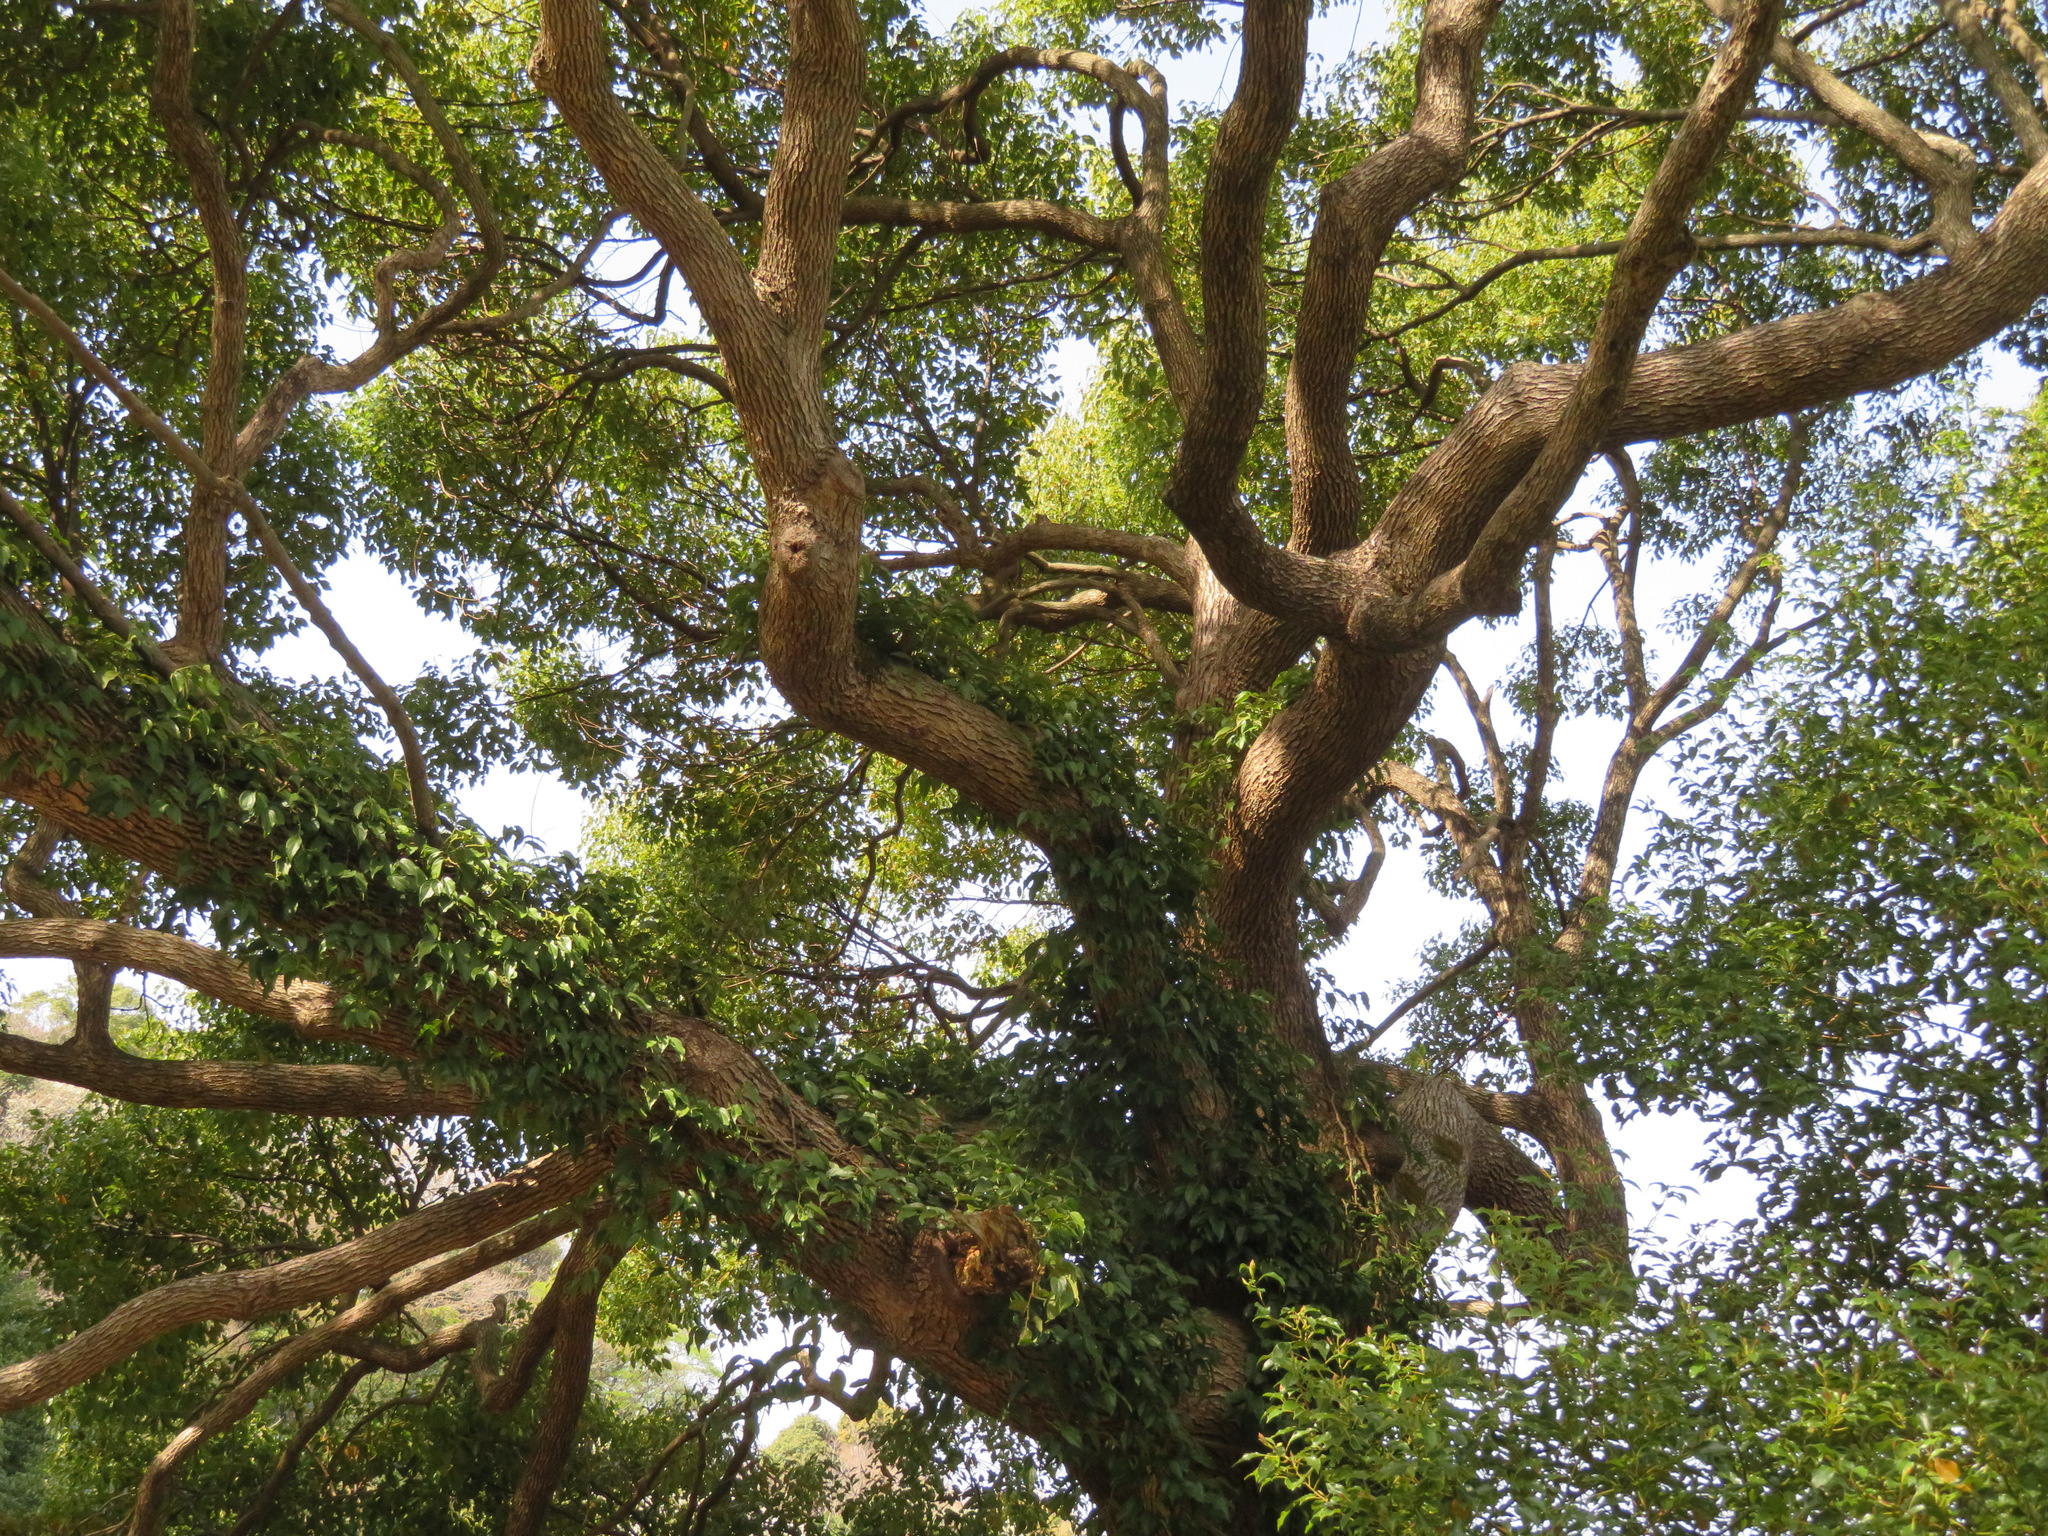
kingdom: Plantae
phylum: Tracheophyta
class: Magnoliopsida
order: Laurales
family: Lauraceae
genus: Cinnamomum
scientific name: Cinnamomum camphora
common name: Camphortree
